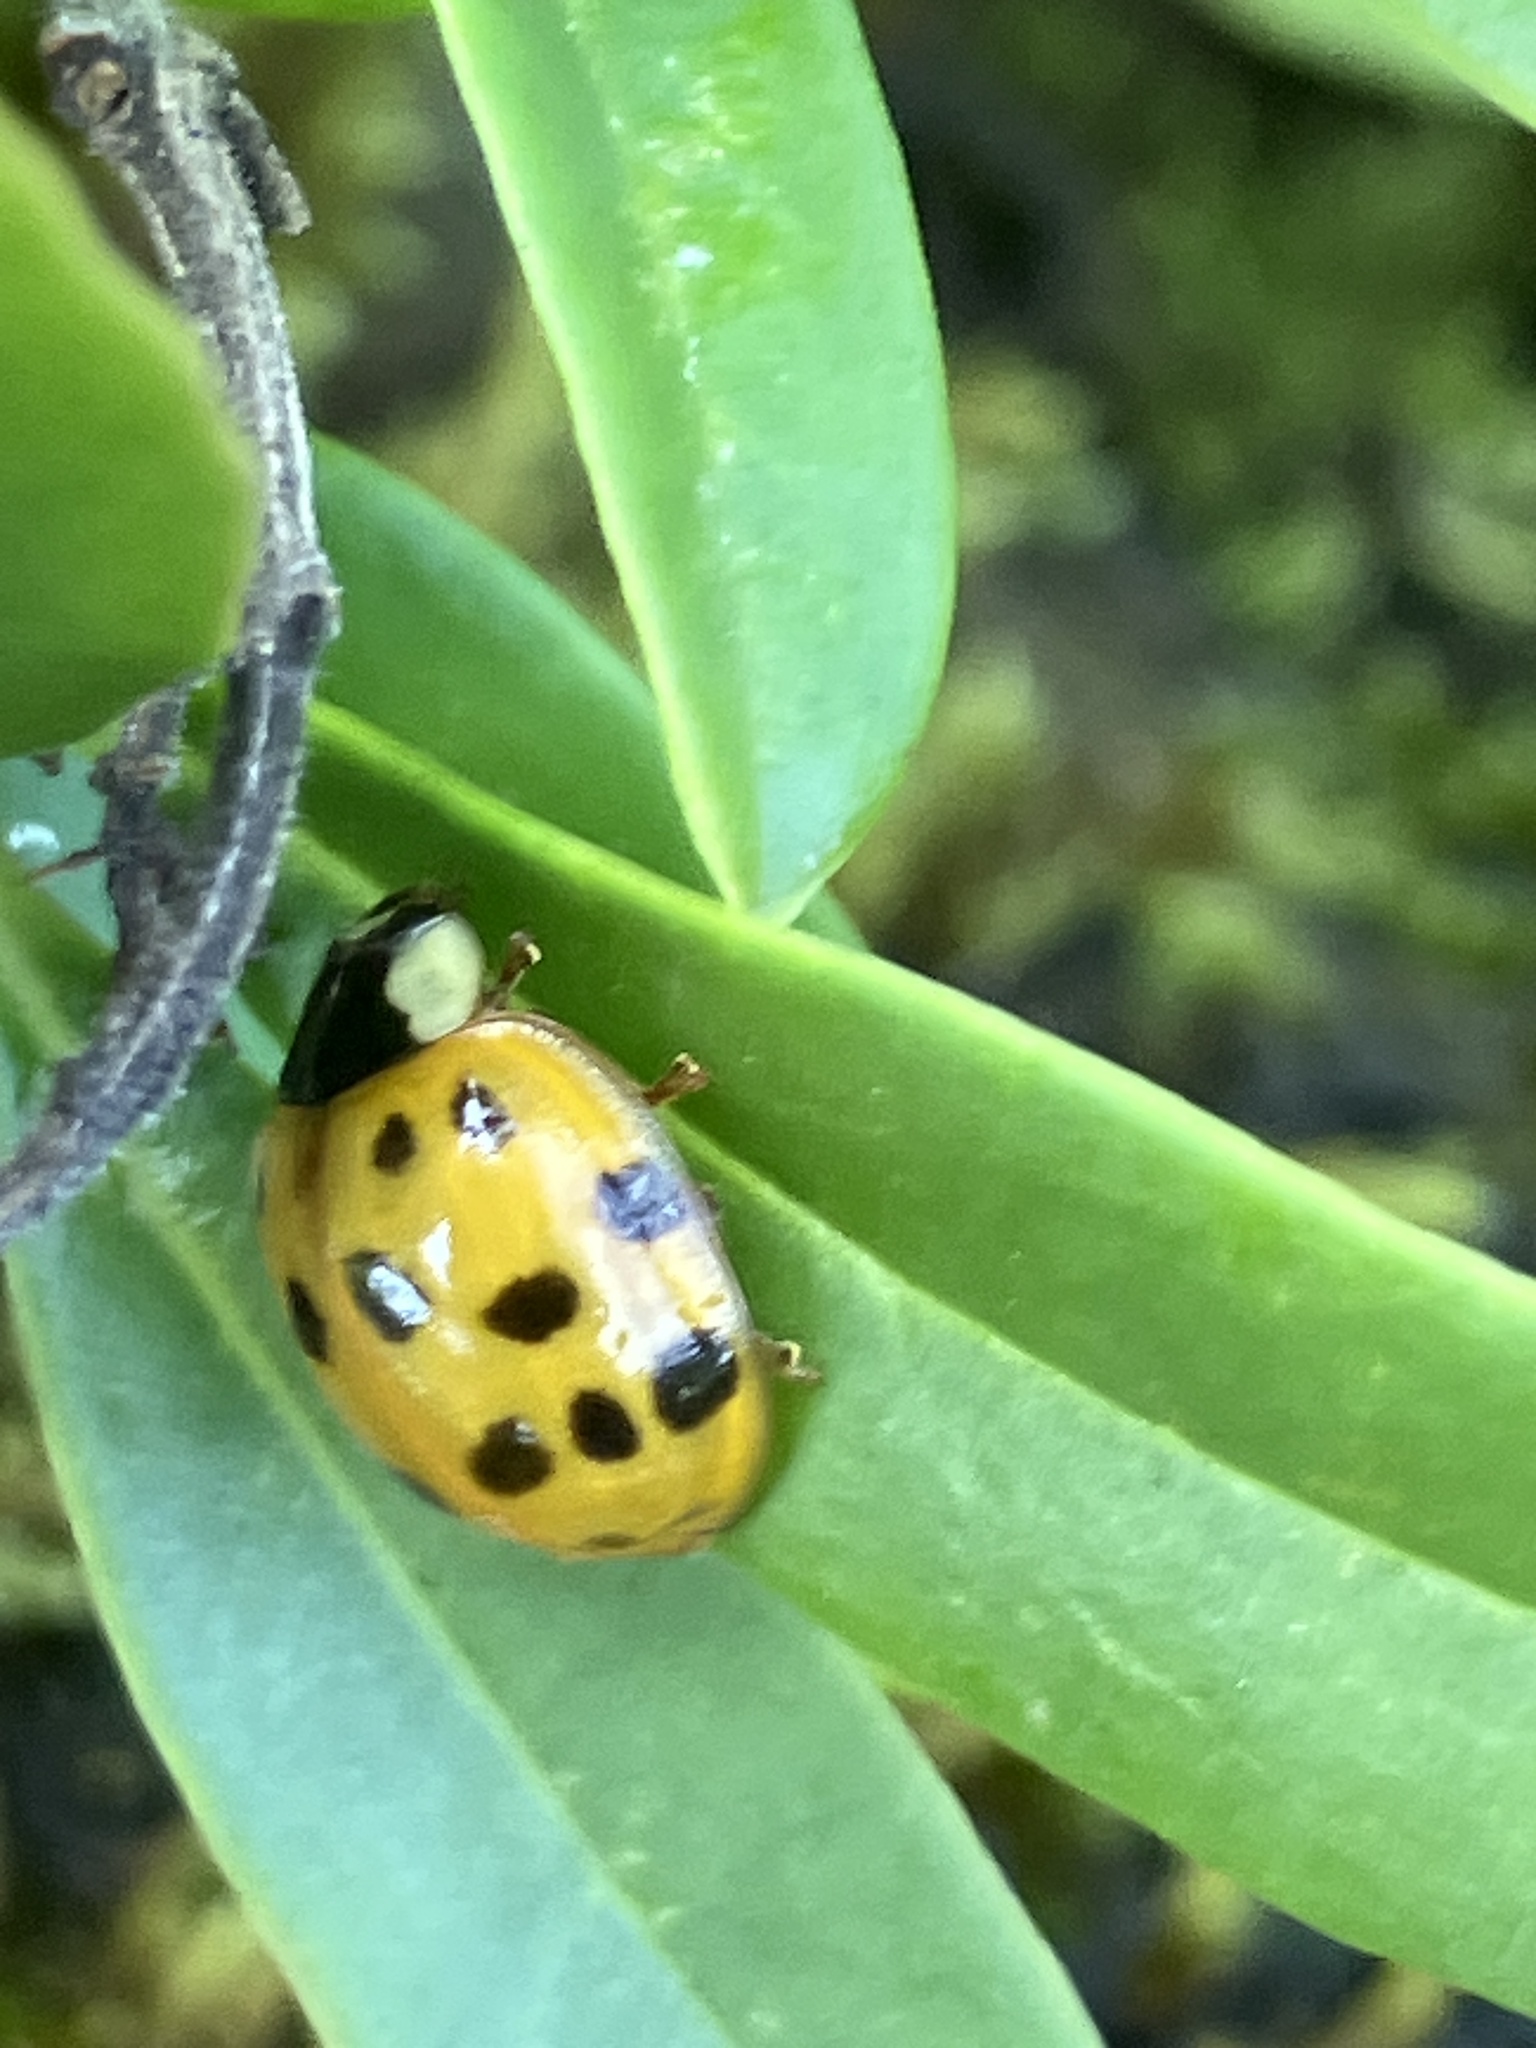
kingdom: Animalia
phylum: Arthropoda
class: Insecta
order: Coleoptera
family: Coccinellidae
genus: Harmonia
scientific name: Harmonia axyridis
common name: Harlequin ladybird
